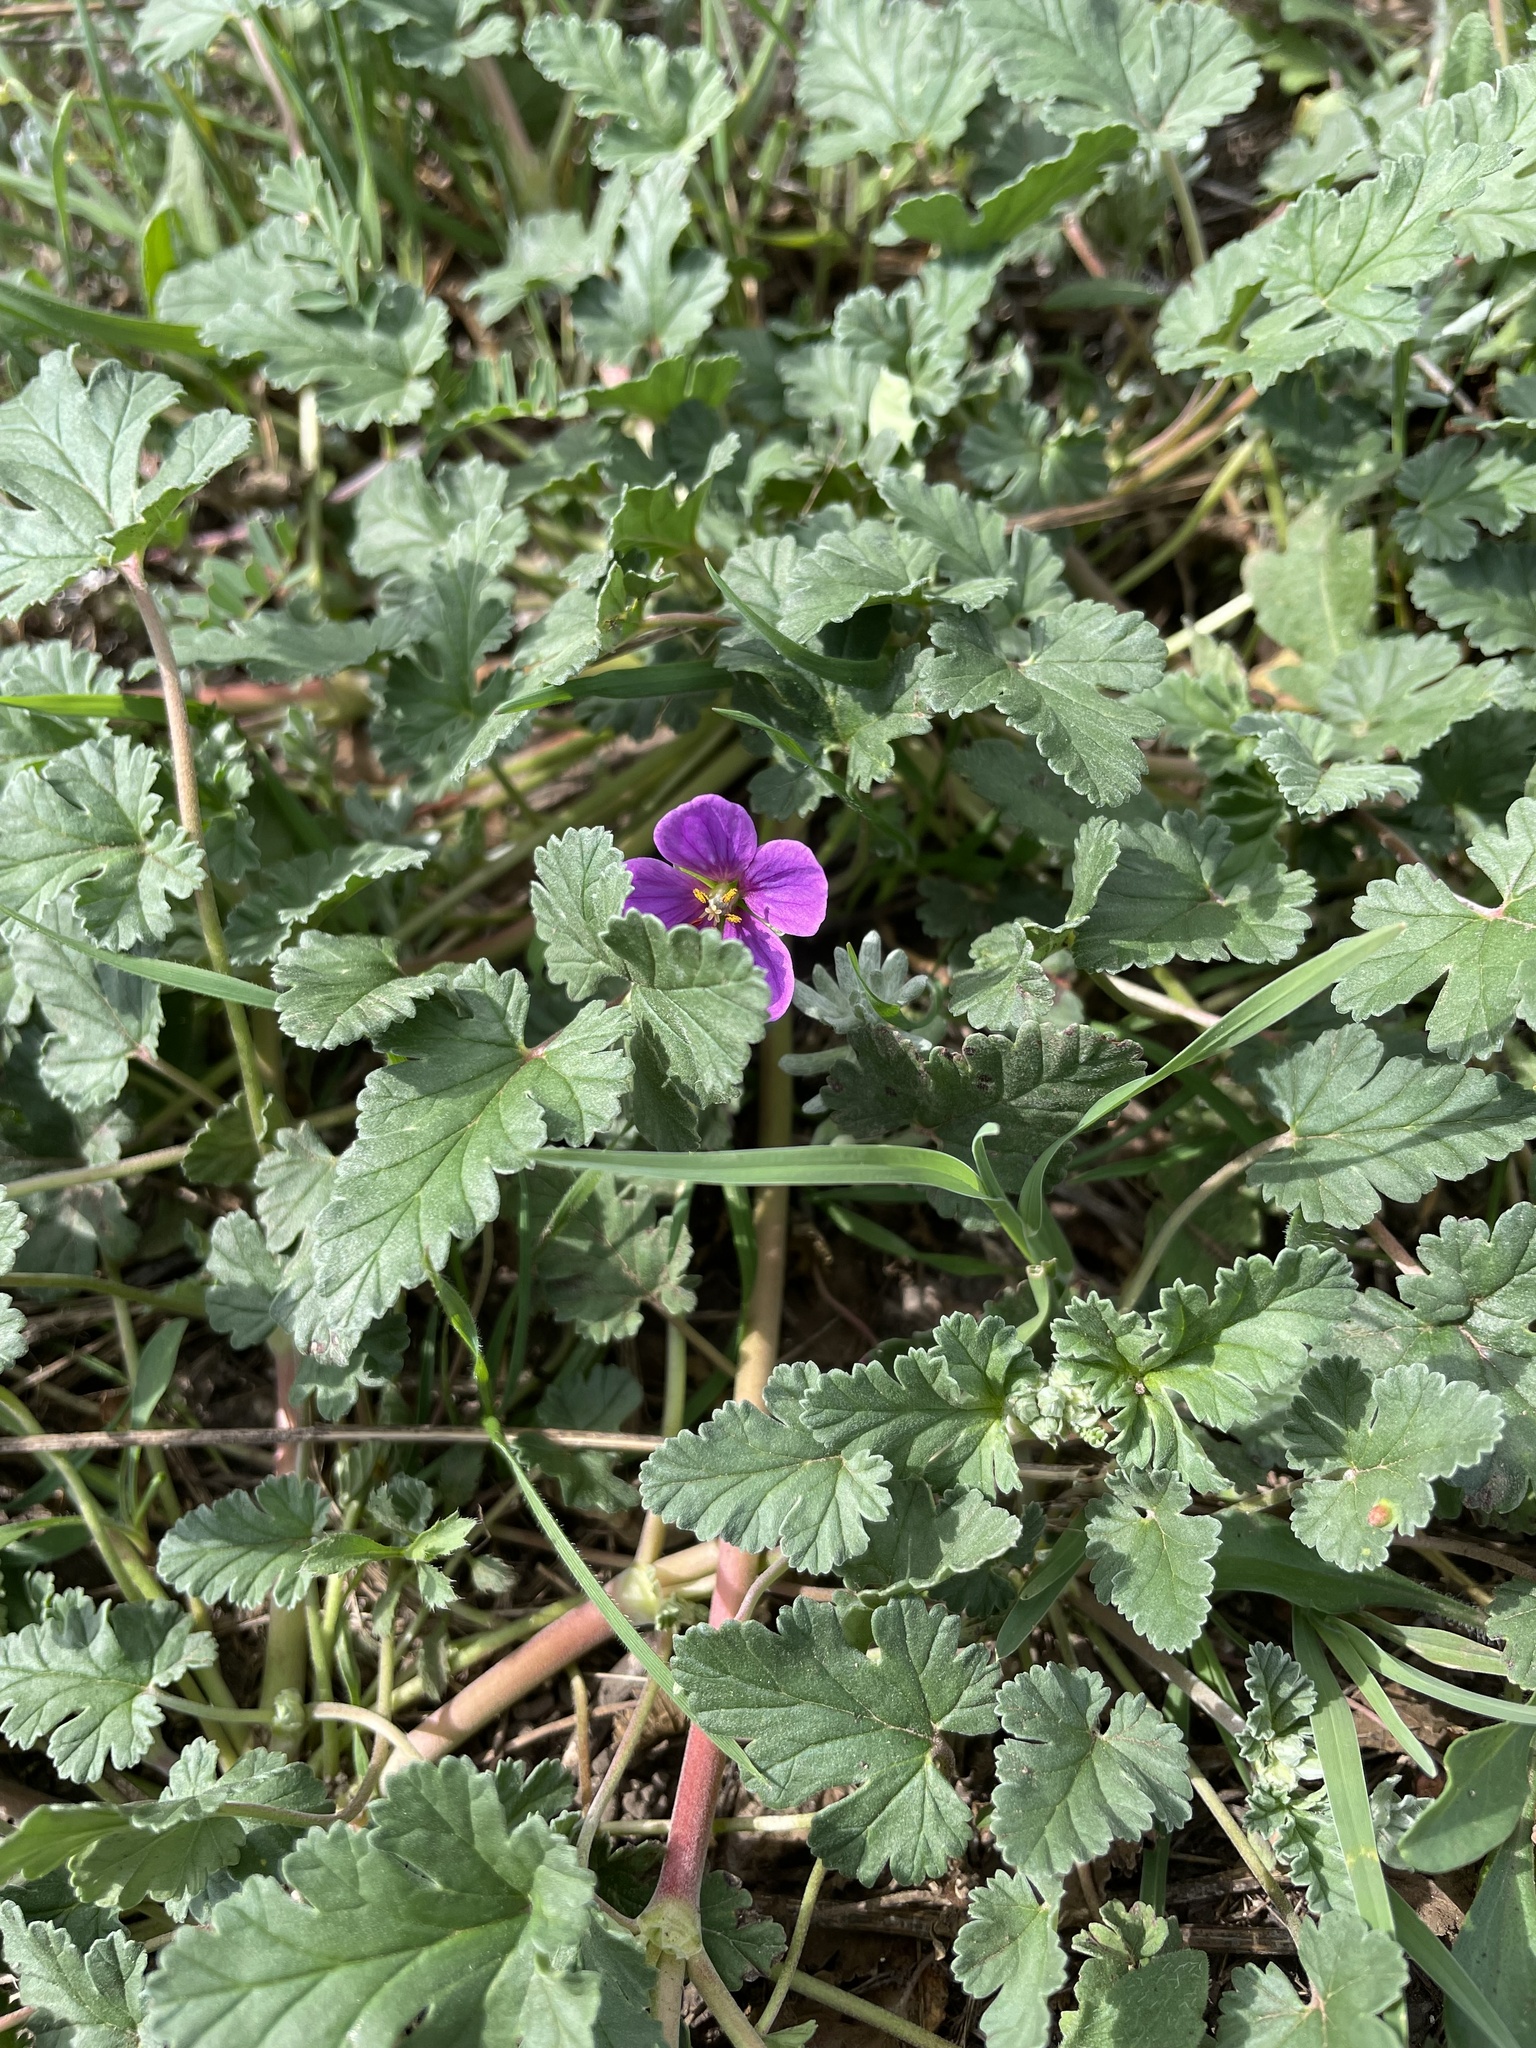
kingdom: Plantae
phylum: Tracheophyta
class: Magnoliopsida
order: Geraniales
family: Geraniaceae
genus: Erodium
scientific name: Erodium texanum
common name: Texas stork's-bill
